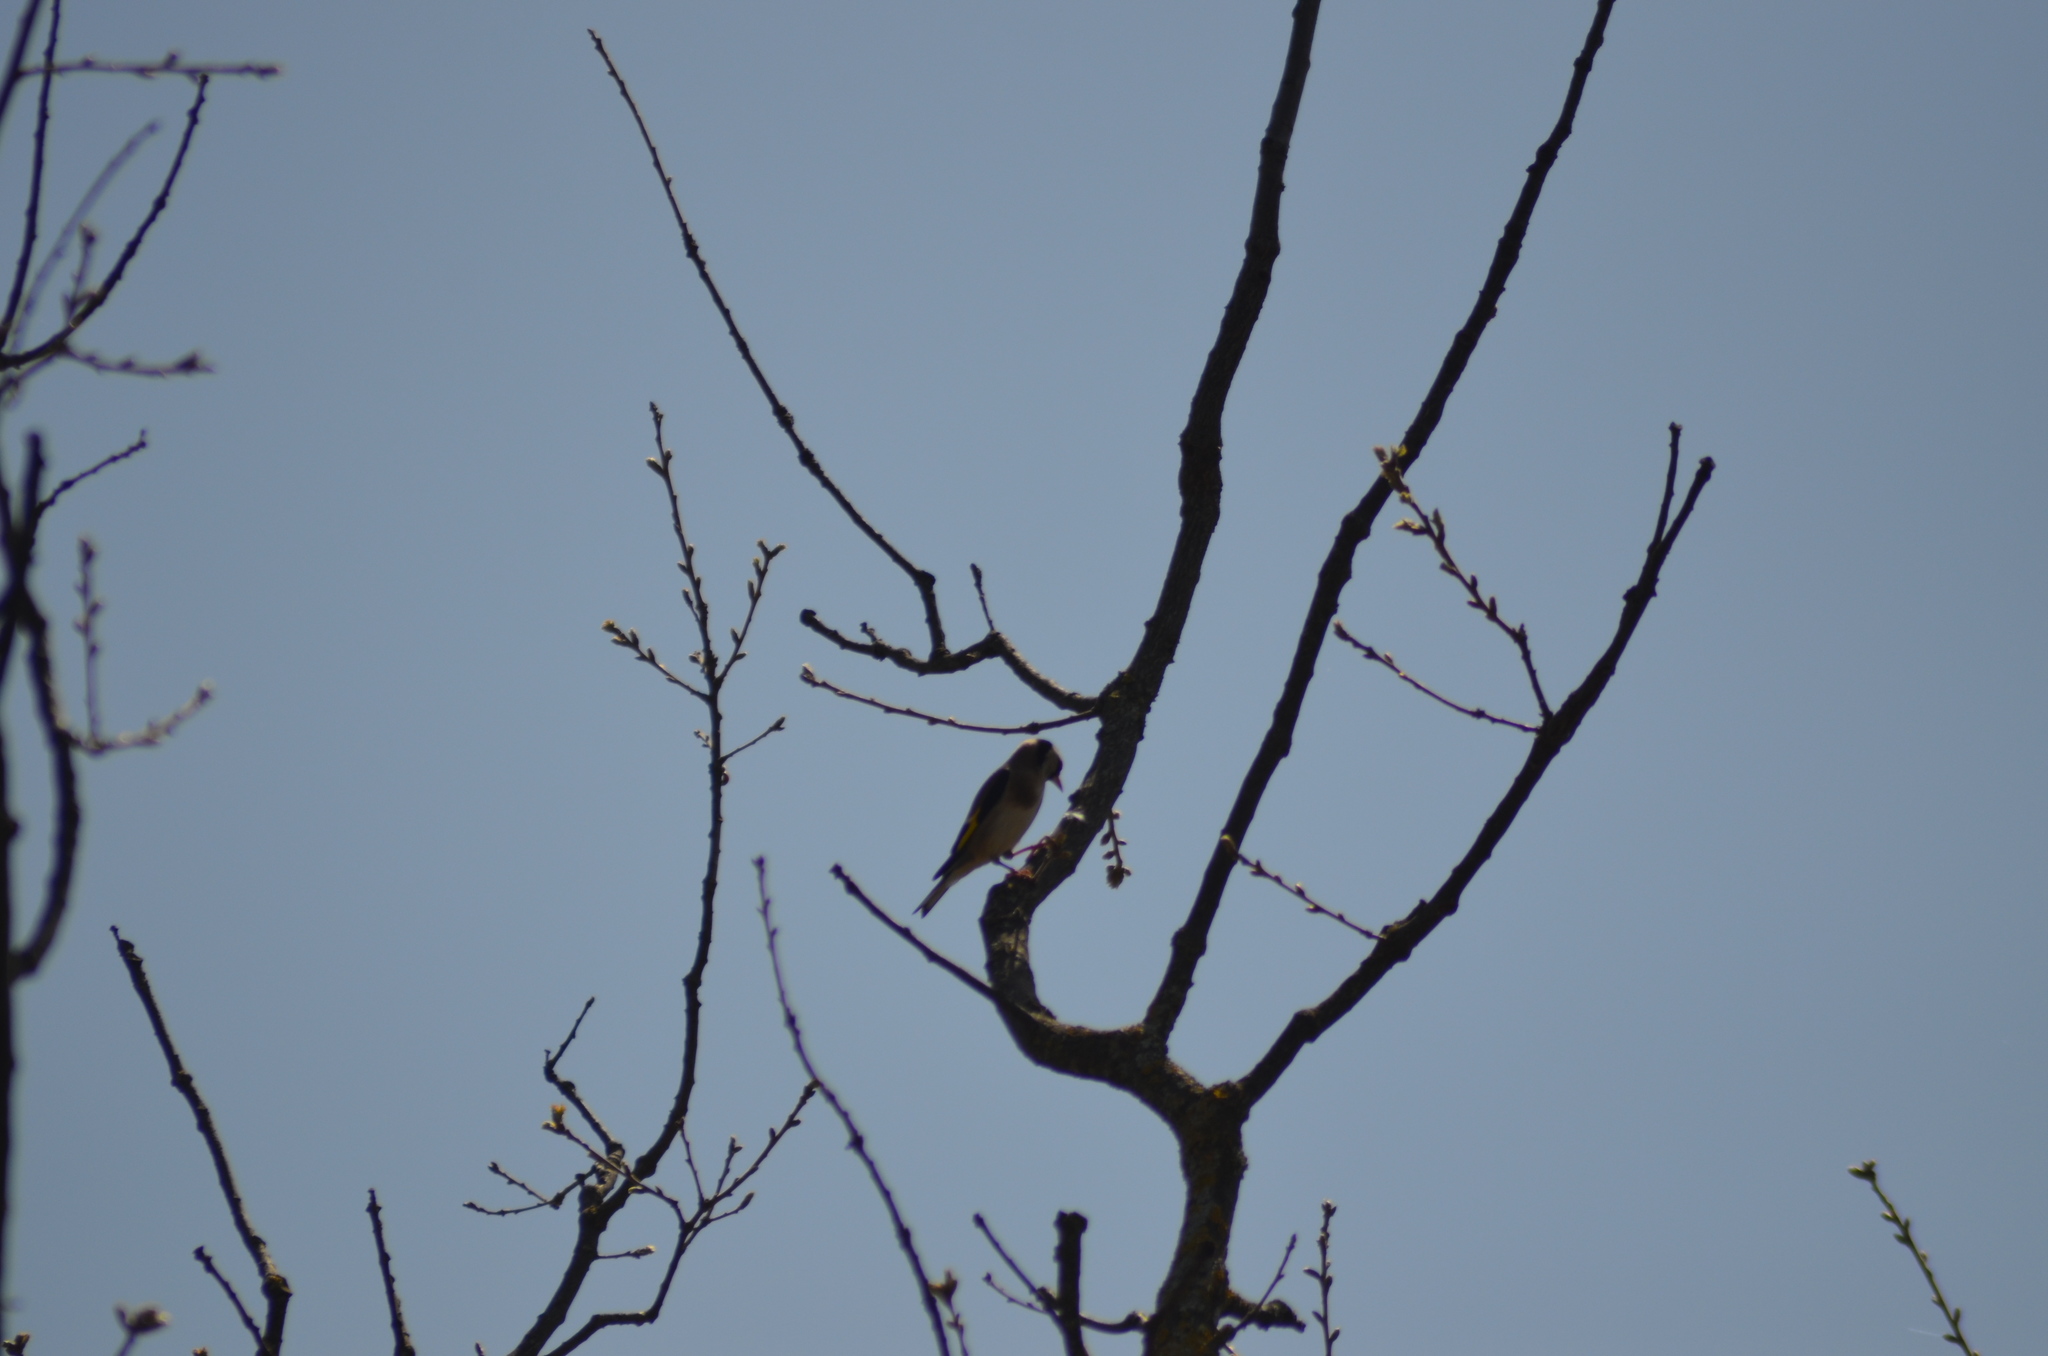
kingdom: Animalia
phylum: Chordata
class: Aves
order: Passeriformes
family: Fringillidae
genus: Carduelis
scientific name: Carduelis carduelis
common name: European goldfinch
